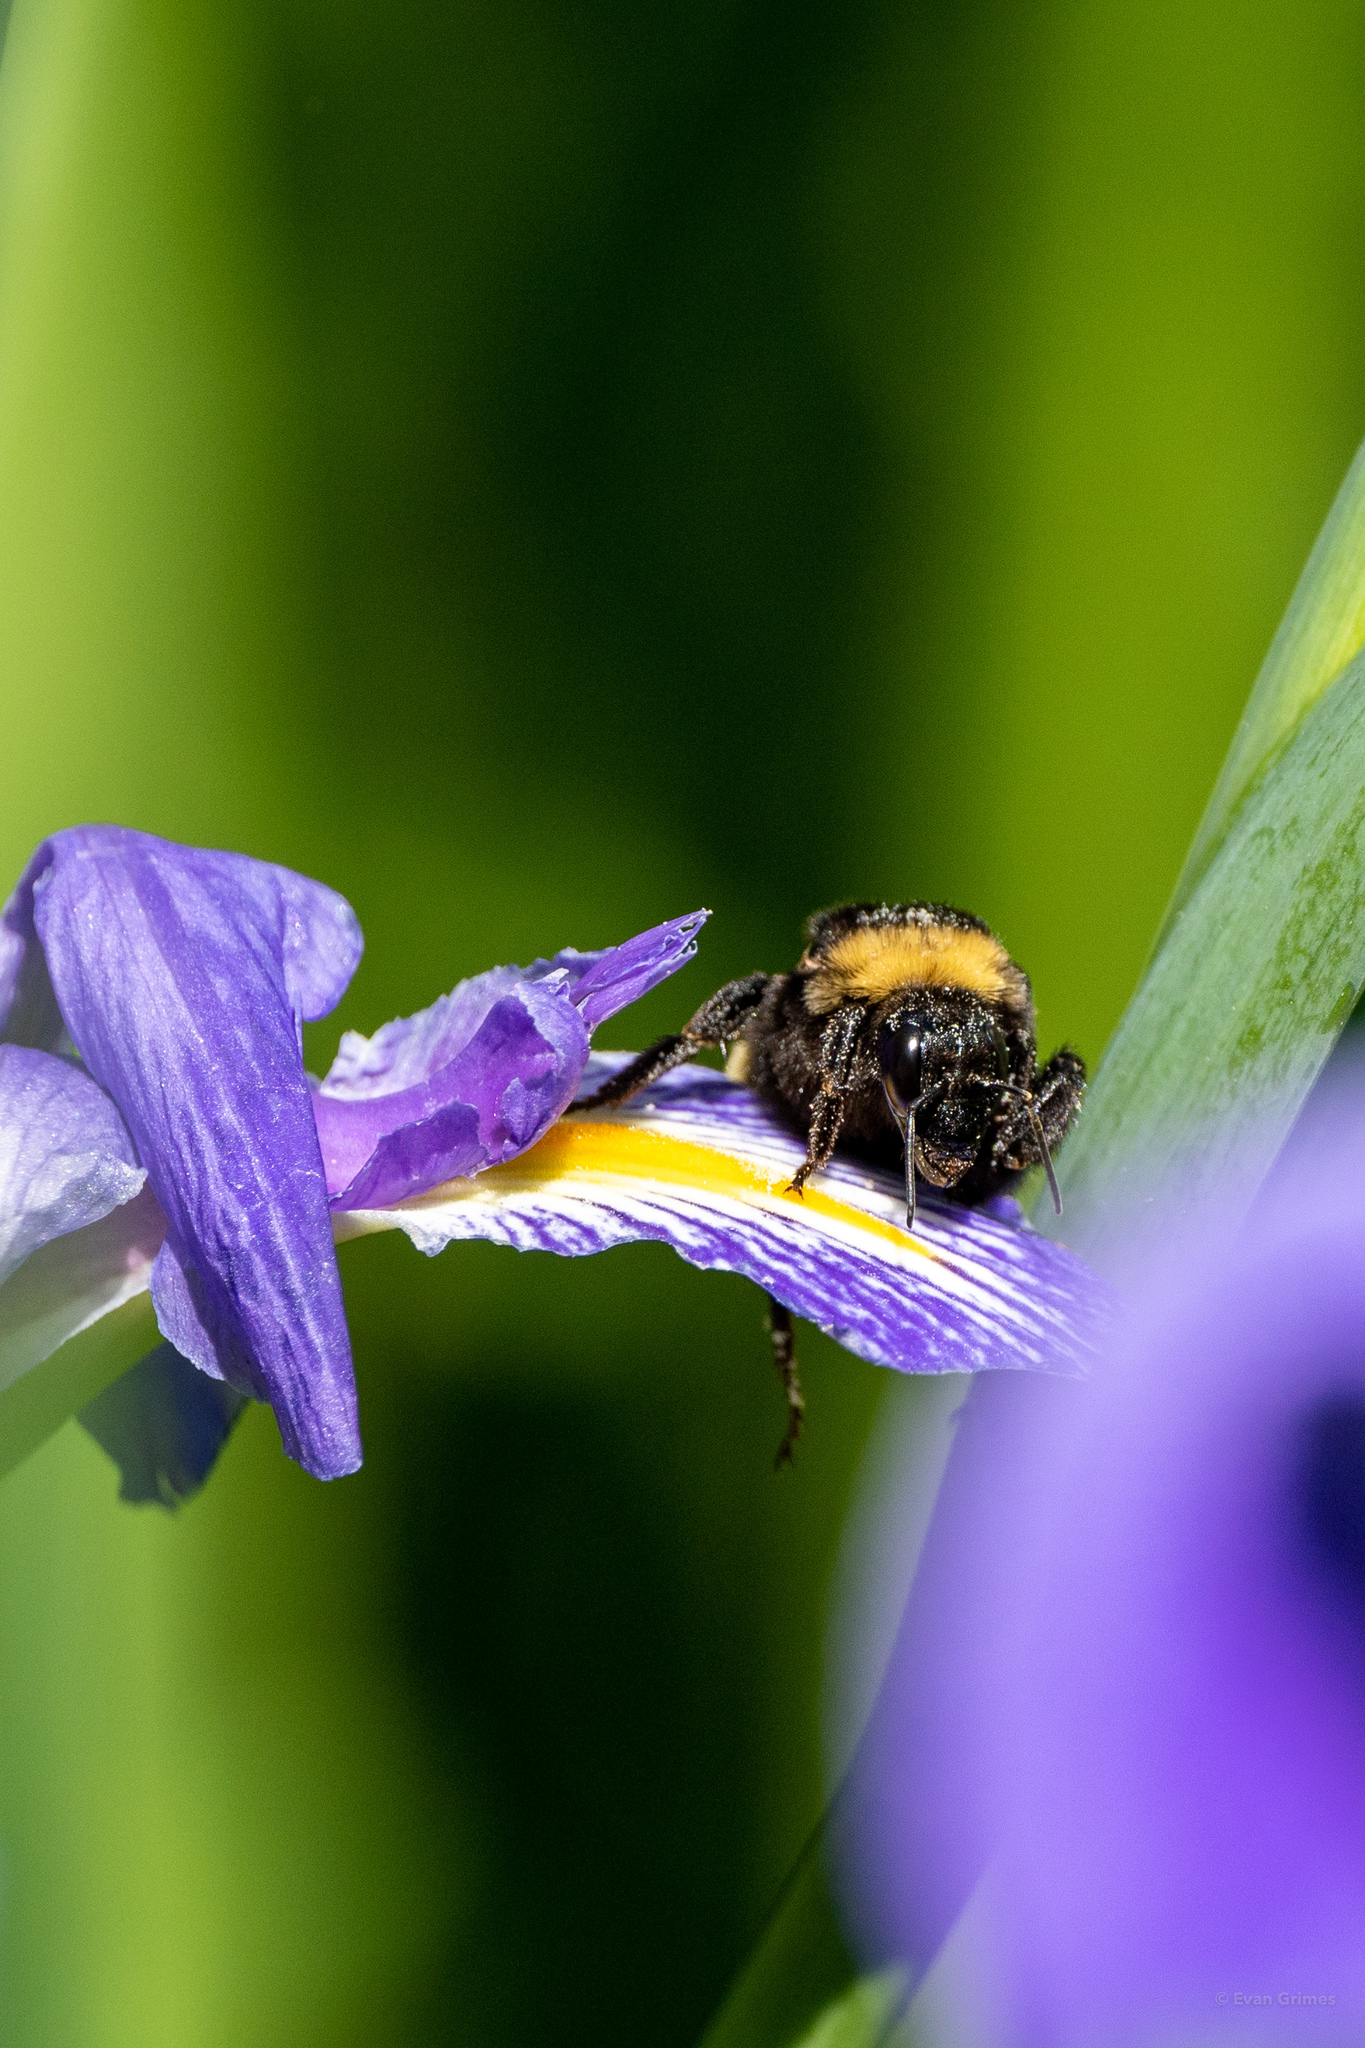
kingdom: Animalia
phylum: Arthropoda
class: Insecta
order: Hymenoptera
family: Apidae
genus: Bombus
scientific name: Bombus pensylvanicus
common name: Bumble bee
